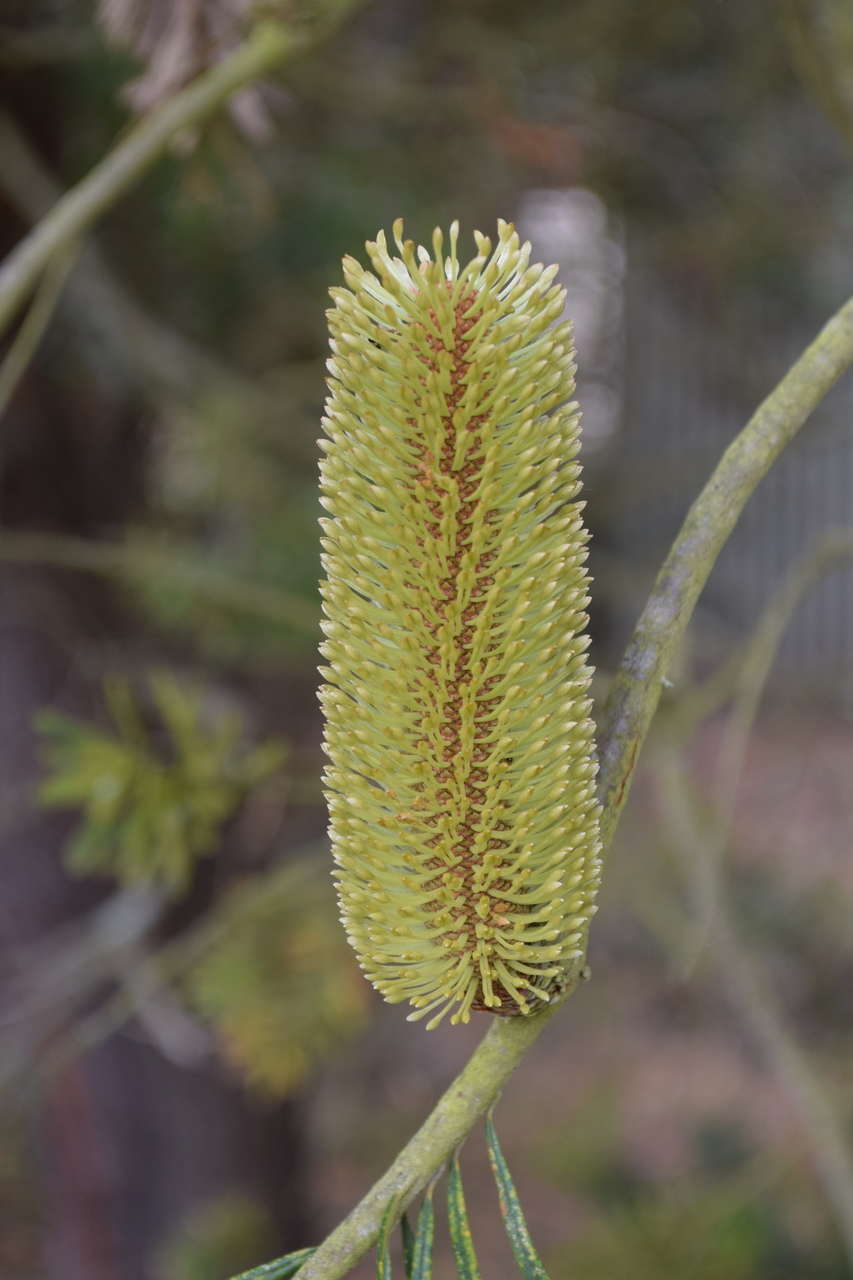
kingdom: Plantae
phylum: Tracheophyta
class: Magnoliopsida
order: Proteales
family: Proteaceae
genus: Banksia
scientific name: Banksia marginata
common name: Silver banksia
